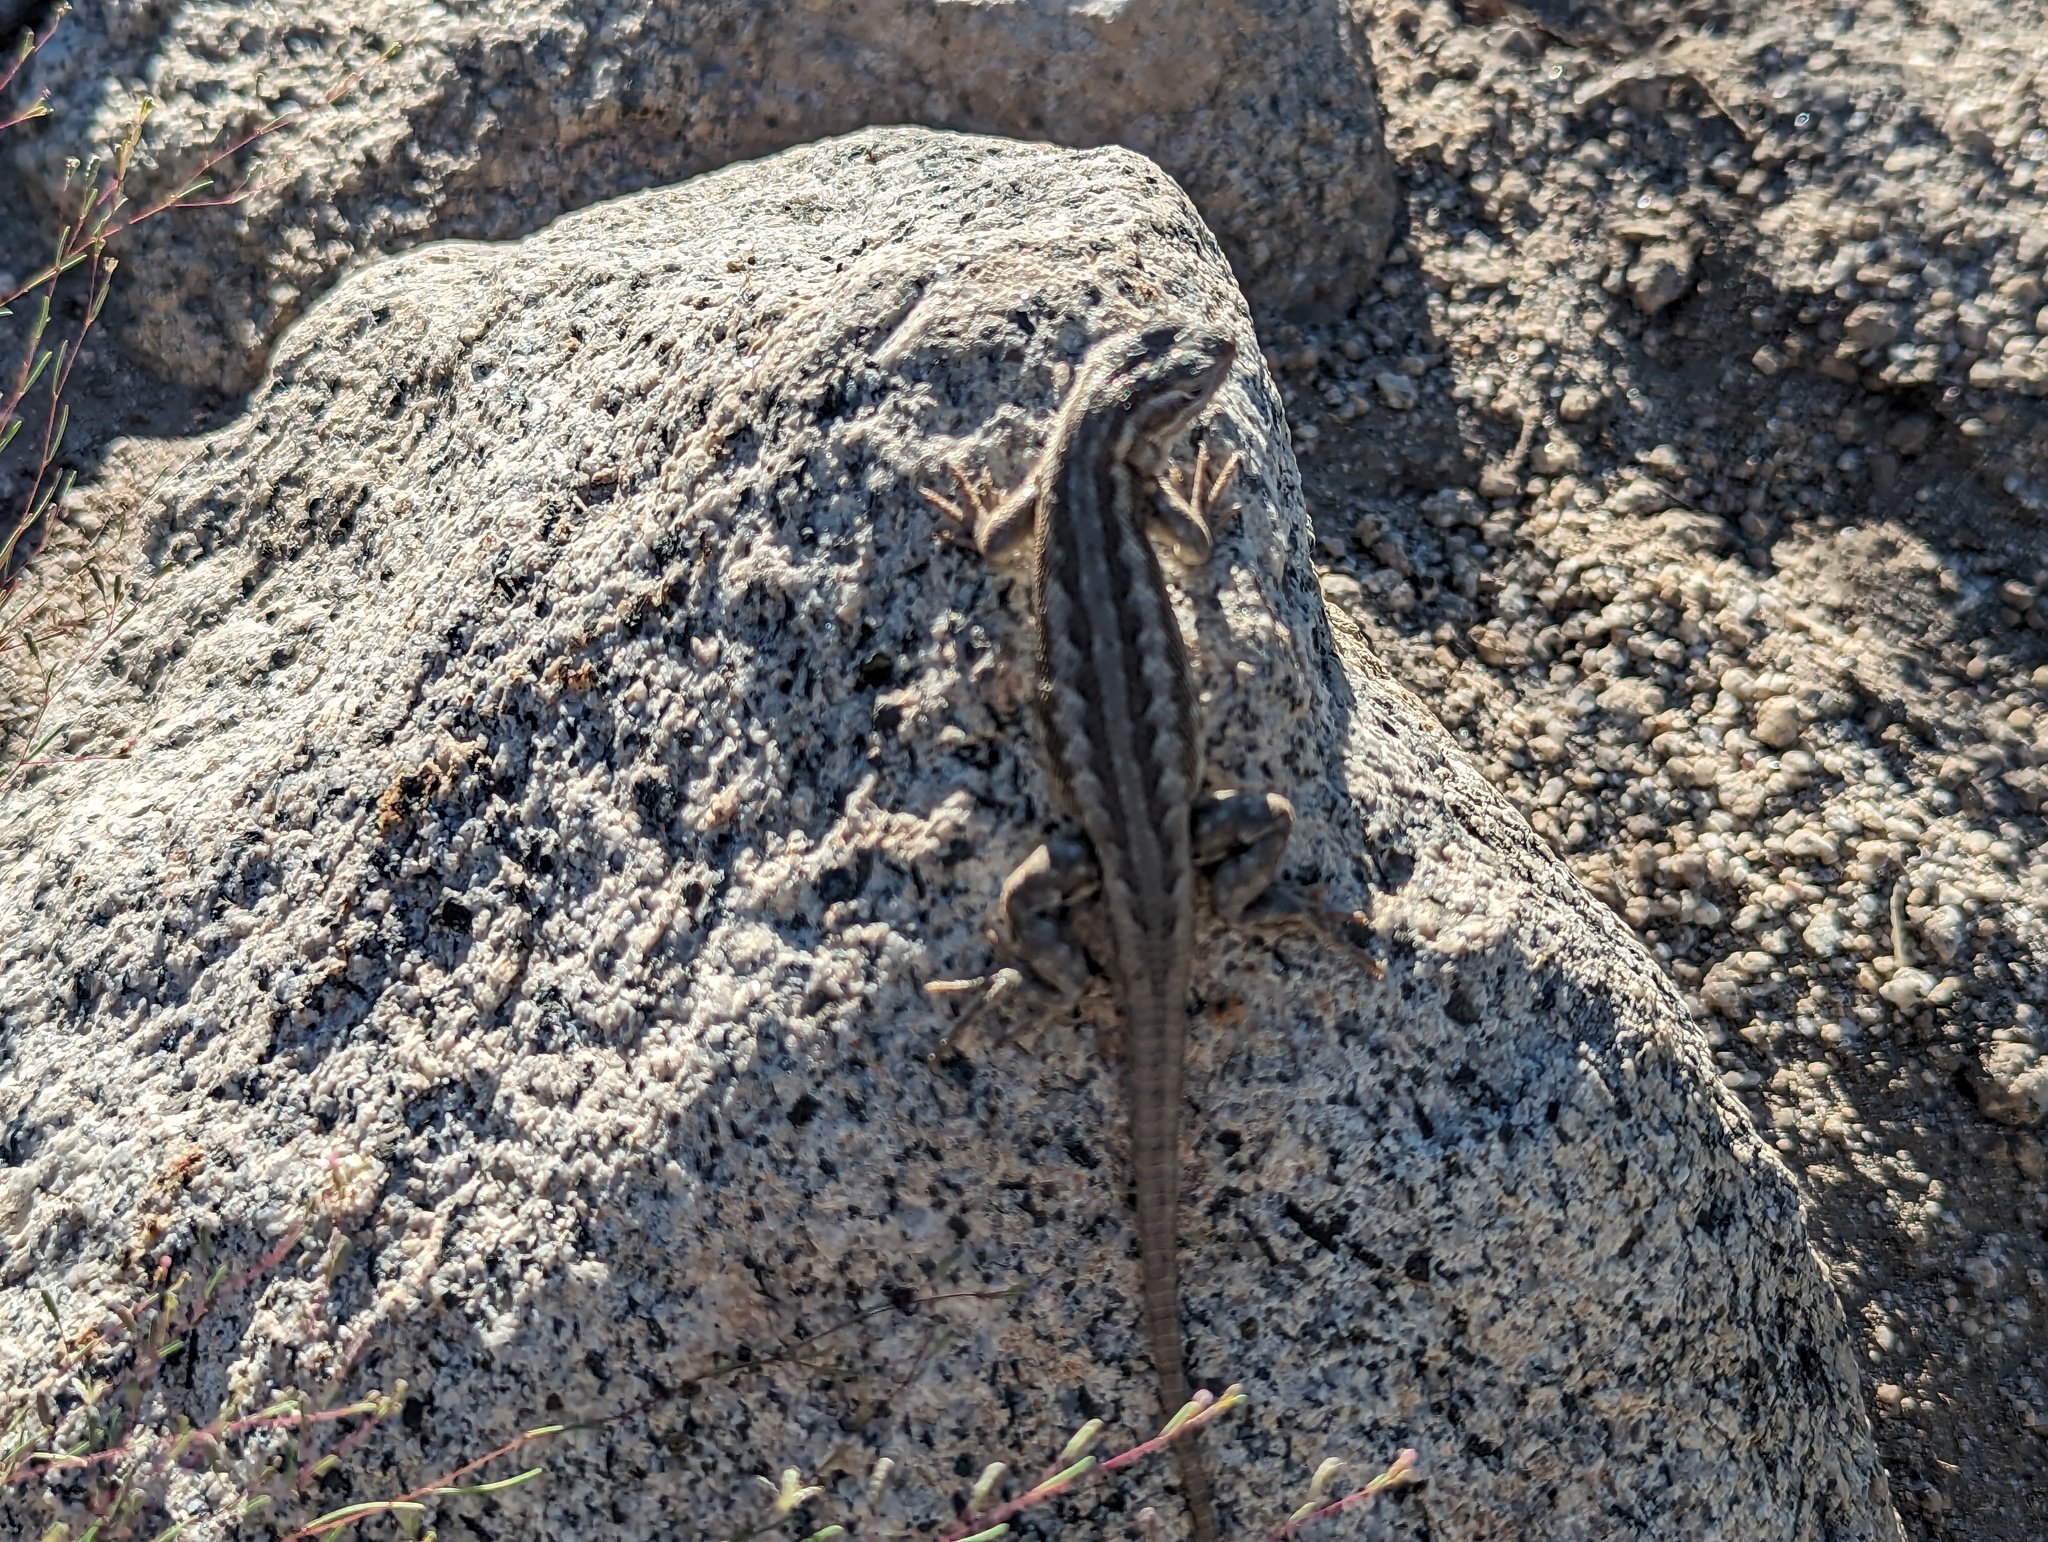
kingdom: Animalia
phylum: Chordata
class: Squamata
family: Phrynosomatidae
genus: Sceloporus
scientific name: Sceloporus graciosus
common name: Sagebrush lizard
